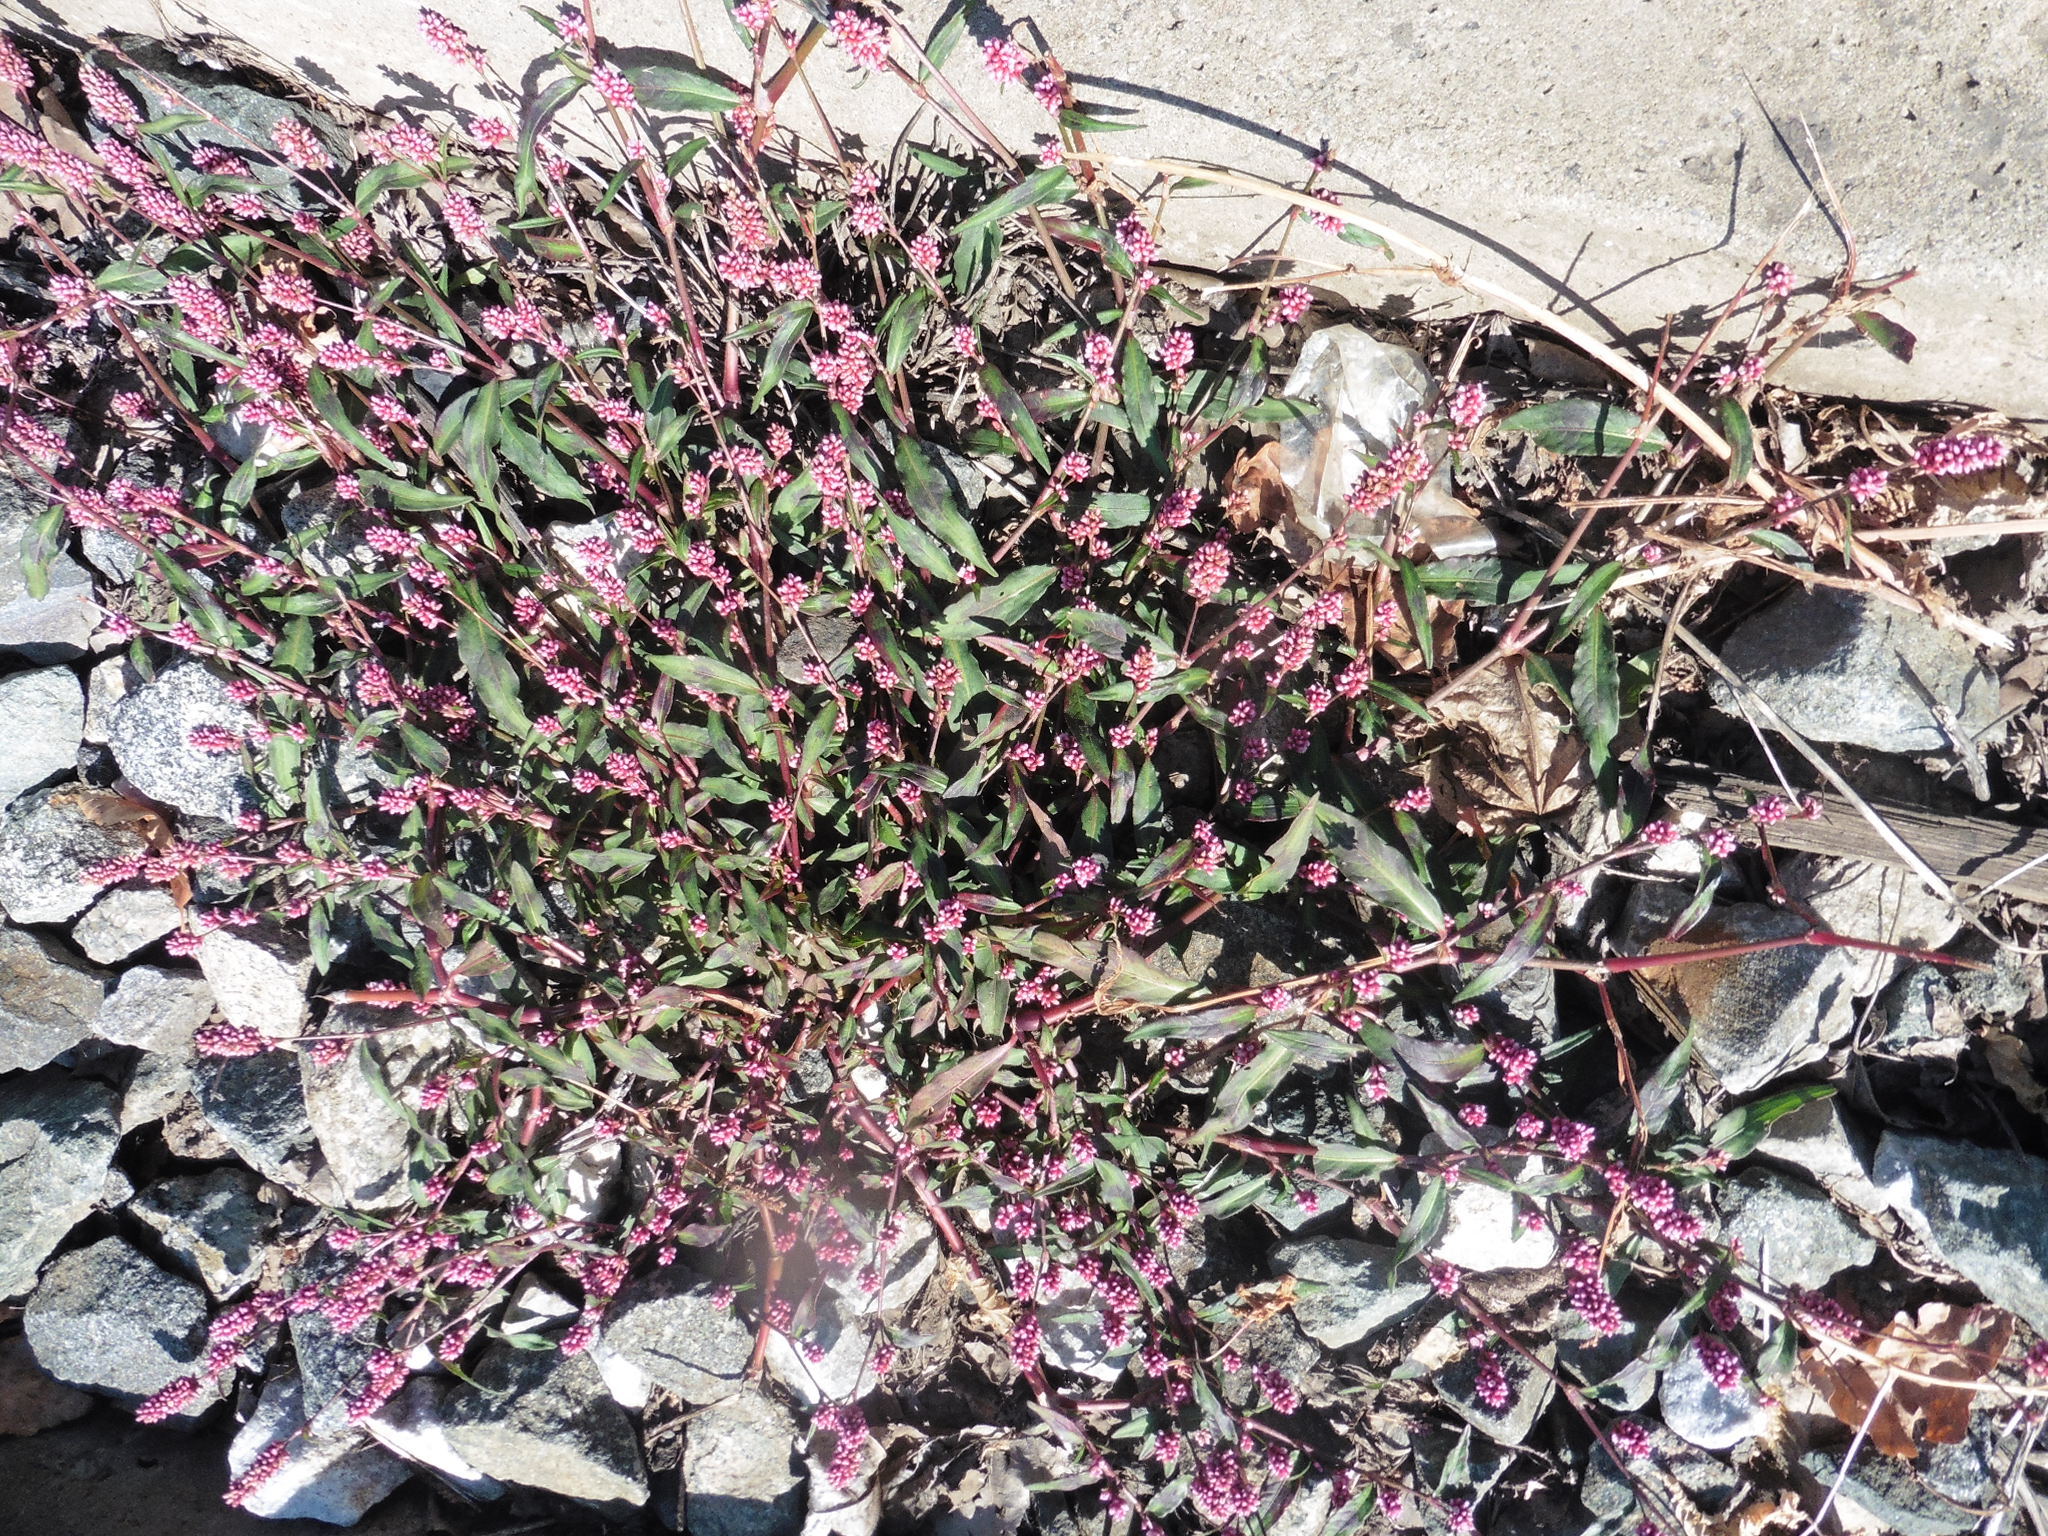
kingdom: Plantae
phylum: Tracheophyta
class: Magnoliopsida
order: Caryophyllales
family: Polygonaceae
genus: Persicaria
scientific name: Persicaria maculosa
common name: Redshank
